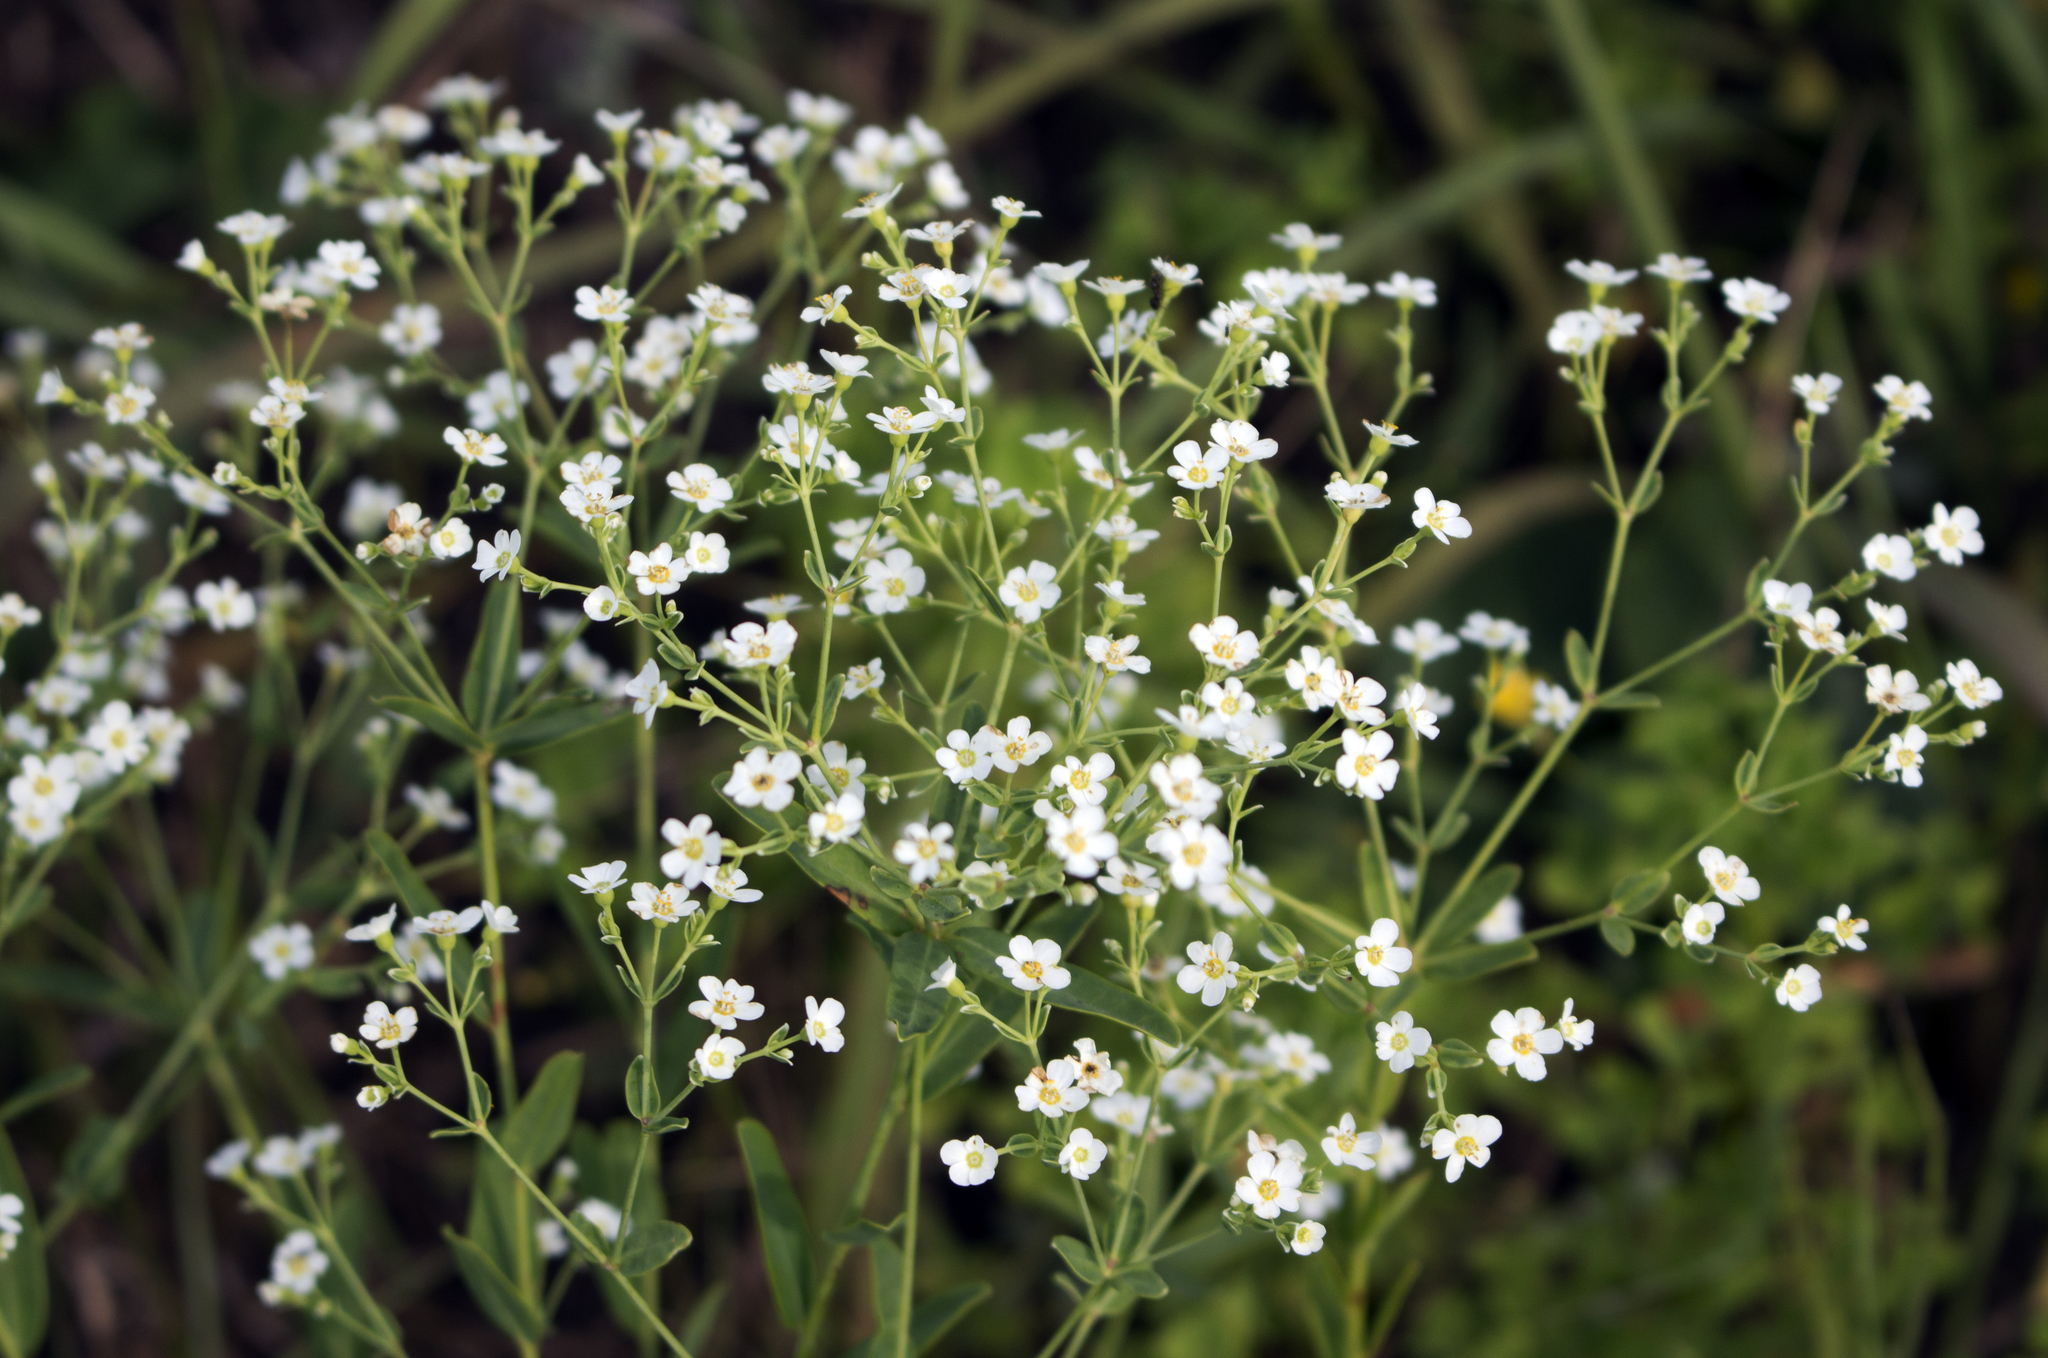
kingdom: Plantae
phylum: Tracheophyta
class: Magnoliopsida
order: Malpighiales
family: Euphorbiaceae
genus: Euphorbia
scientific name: Euphorbia corollata
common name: Flowering spurge
